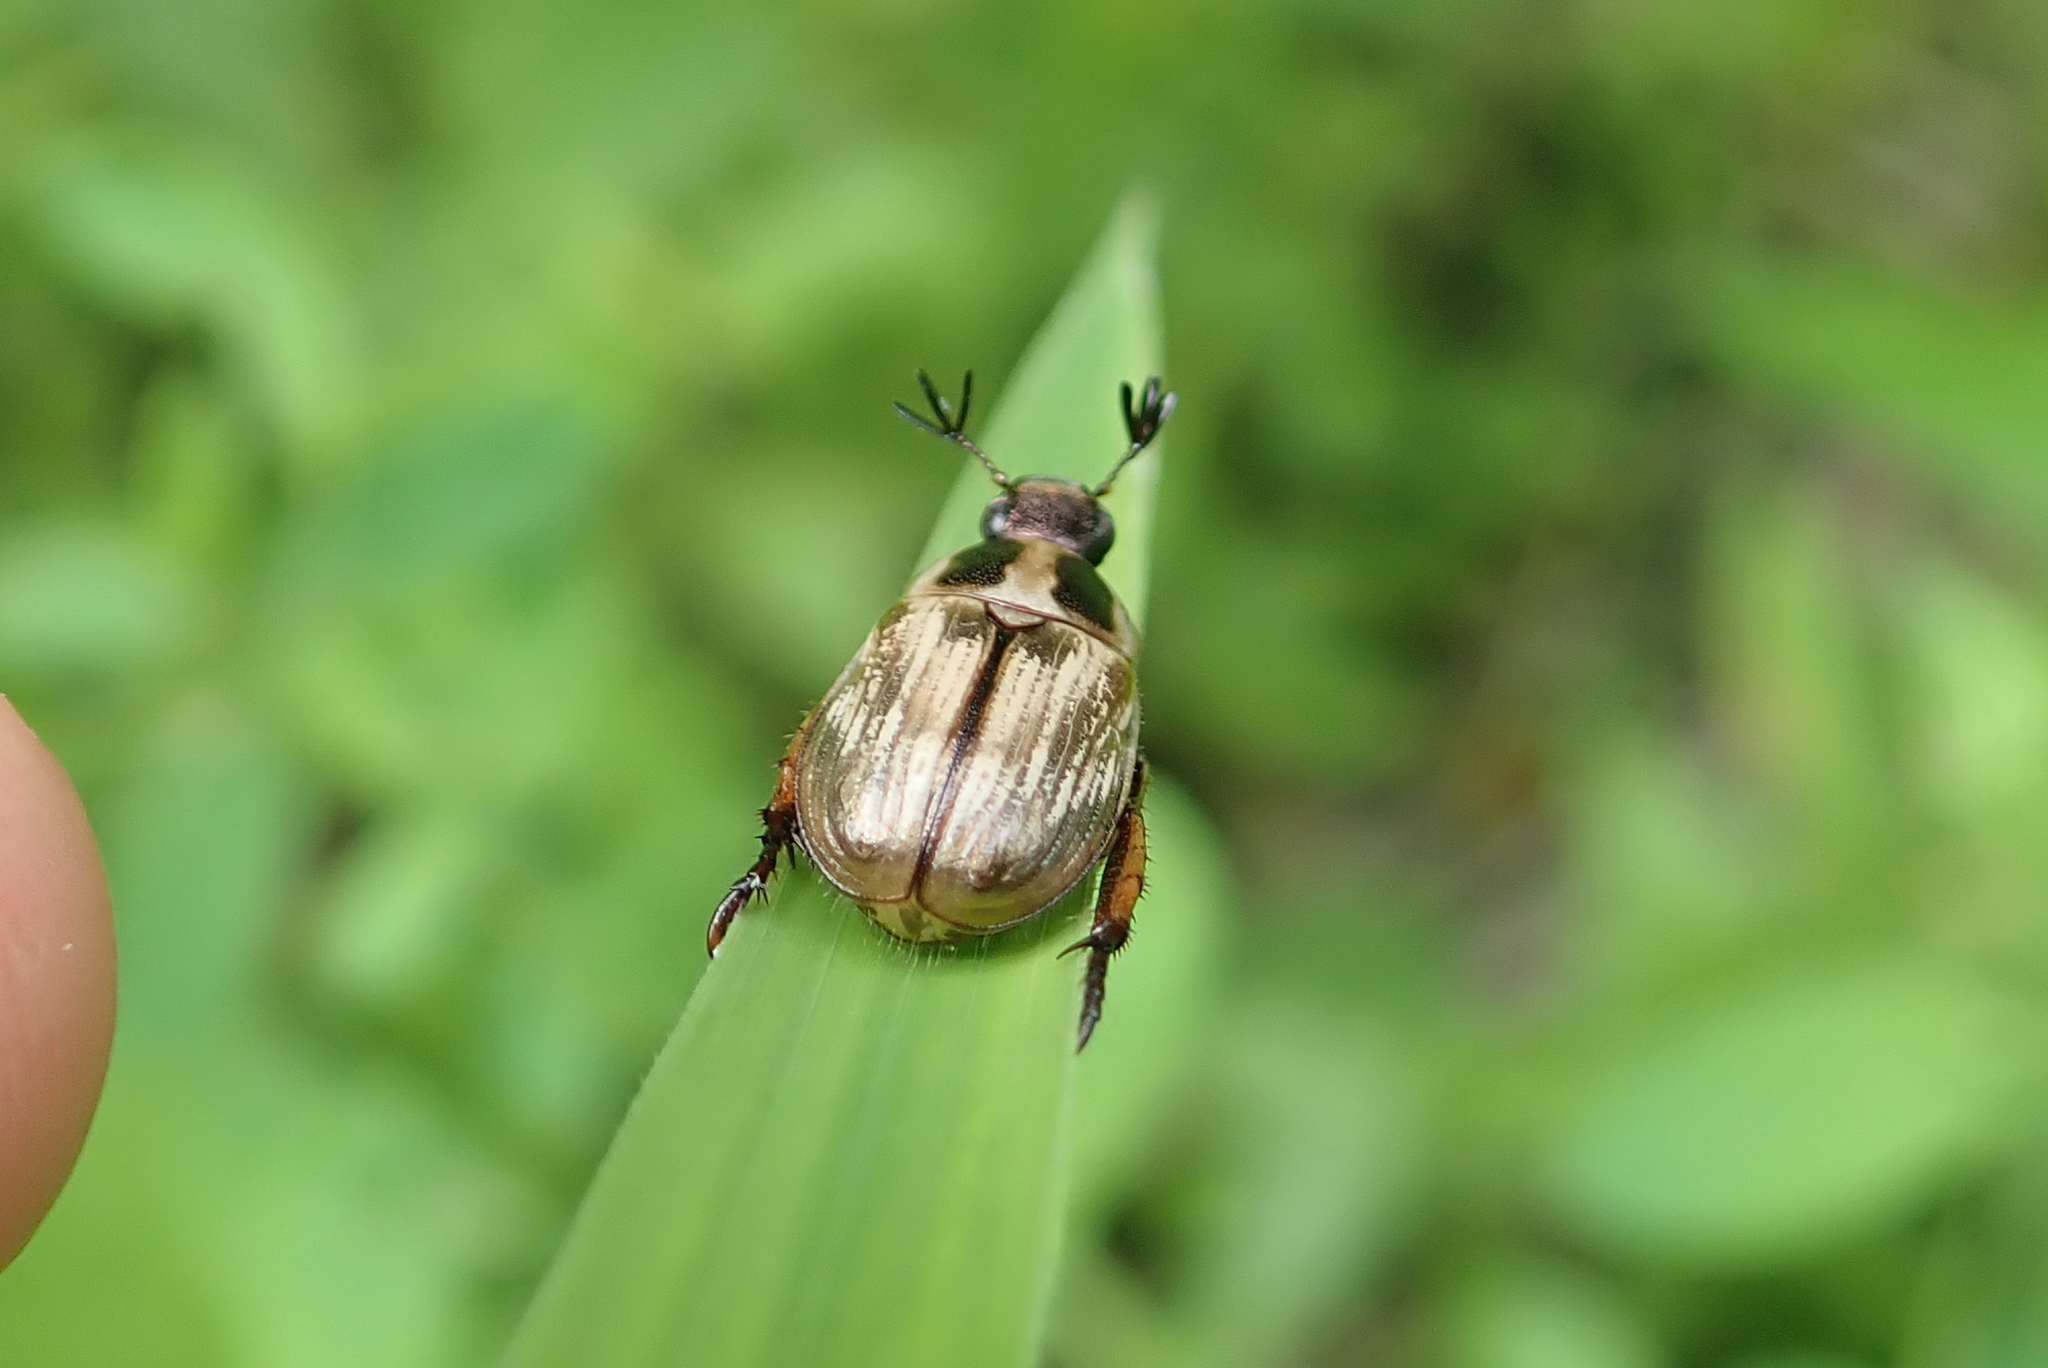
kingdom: Animalia
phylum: Arthropoda
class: Insecta
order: Coleoptera
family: Scarabaeidae
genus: Exomala
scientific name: Exomala orientalis
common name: Oriental beetle
